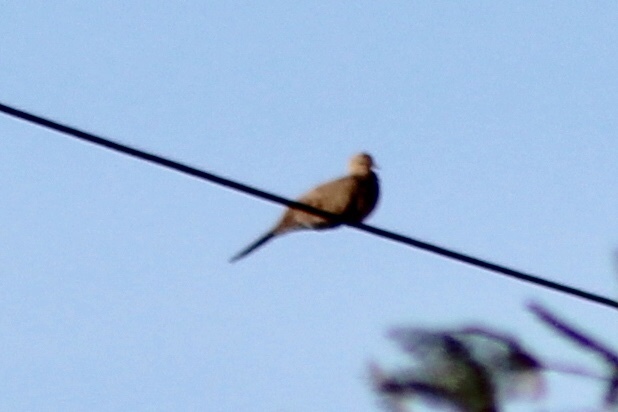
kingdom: Animalia
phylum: Chordata
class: Aves
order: Columbiformes
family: Columbidae
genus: Zenaida
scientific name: Zenaida macroura
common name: Mourning dove
